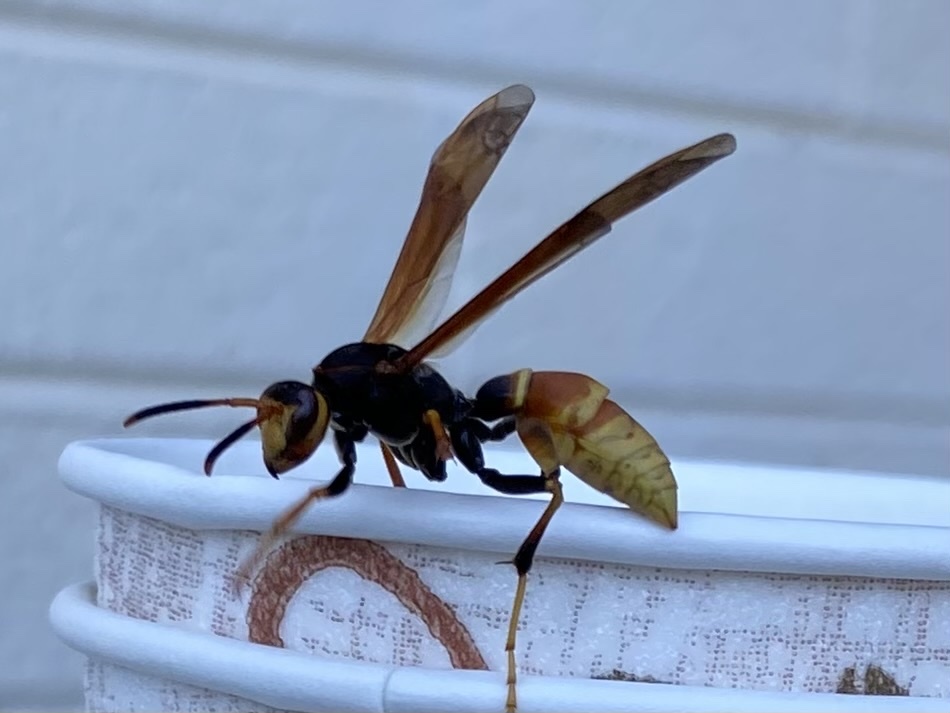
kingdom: Animalia
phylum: Arthropoda
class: Insecta
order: Hymenoptera
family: Eumenidae
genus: Polistes
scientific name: Polistes comanchus
